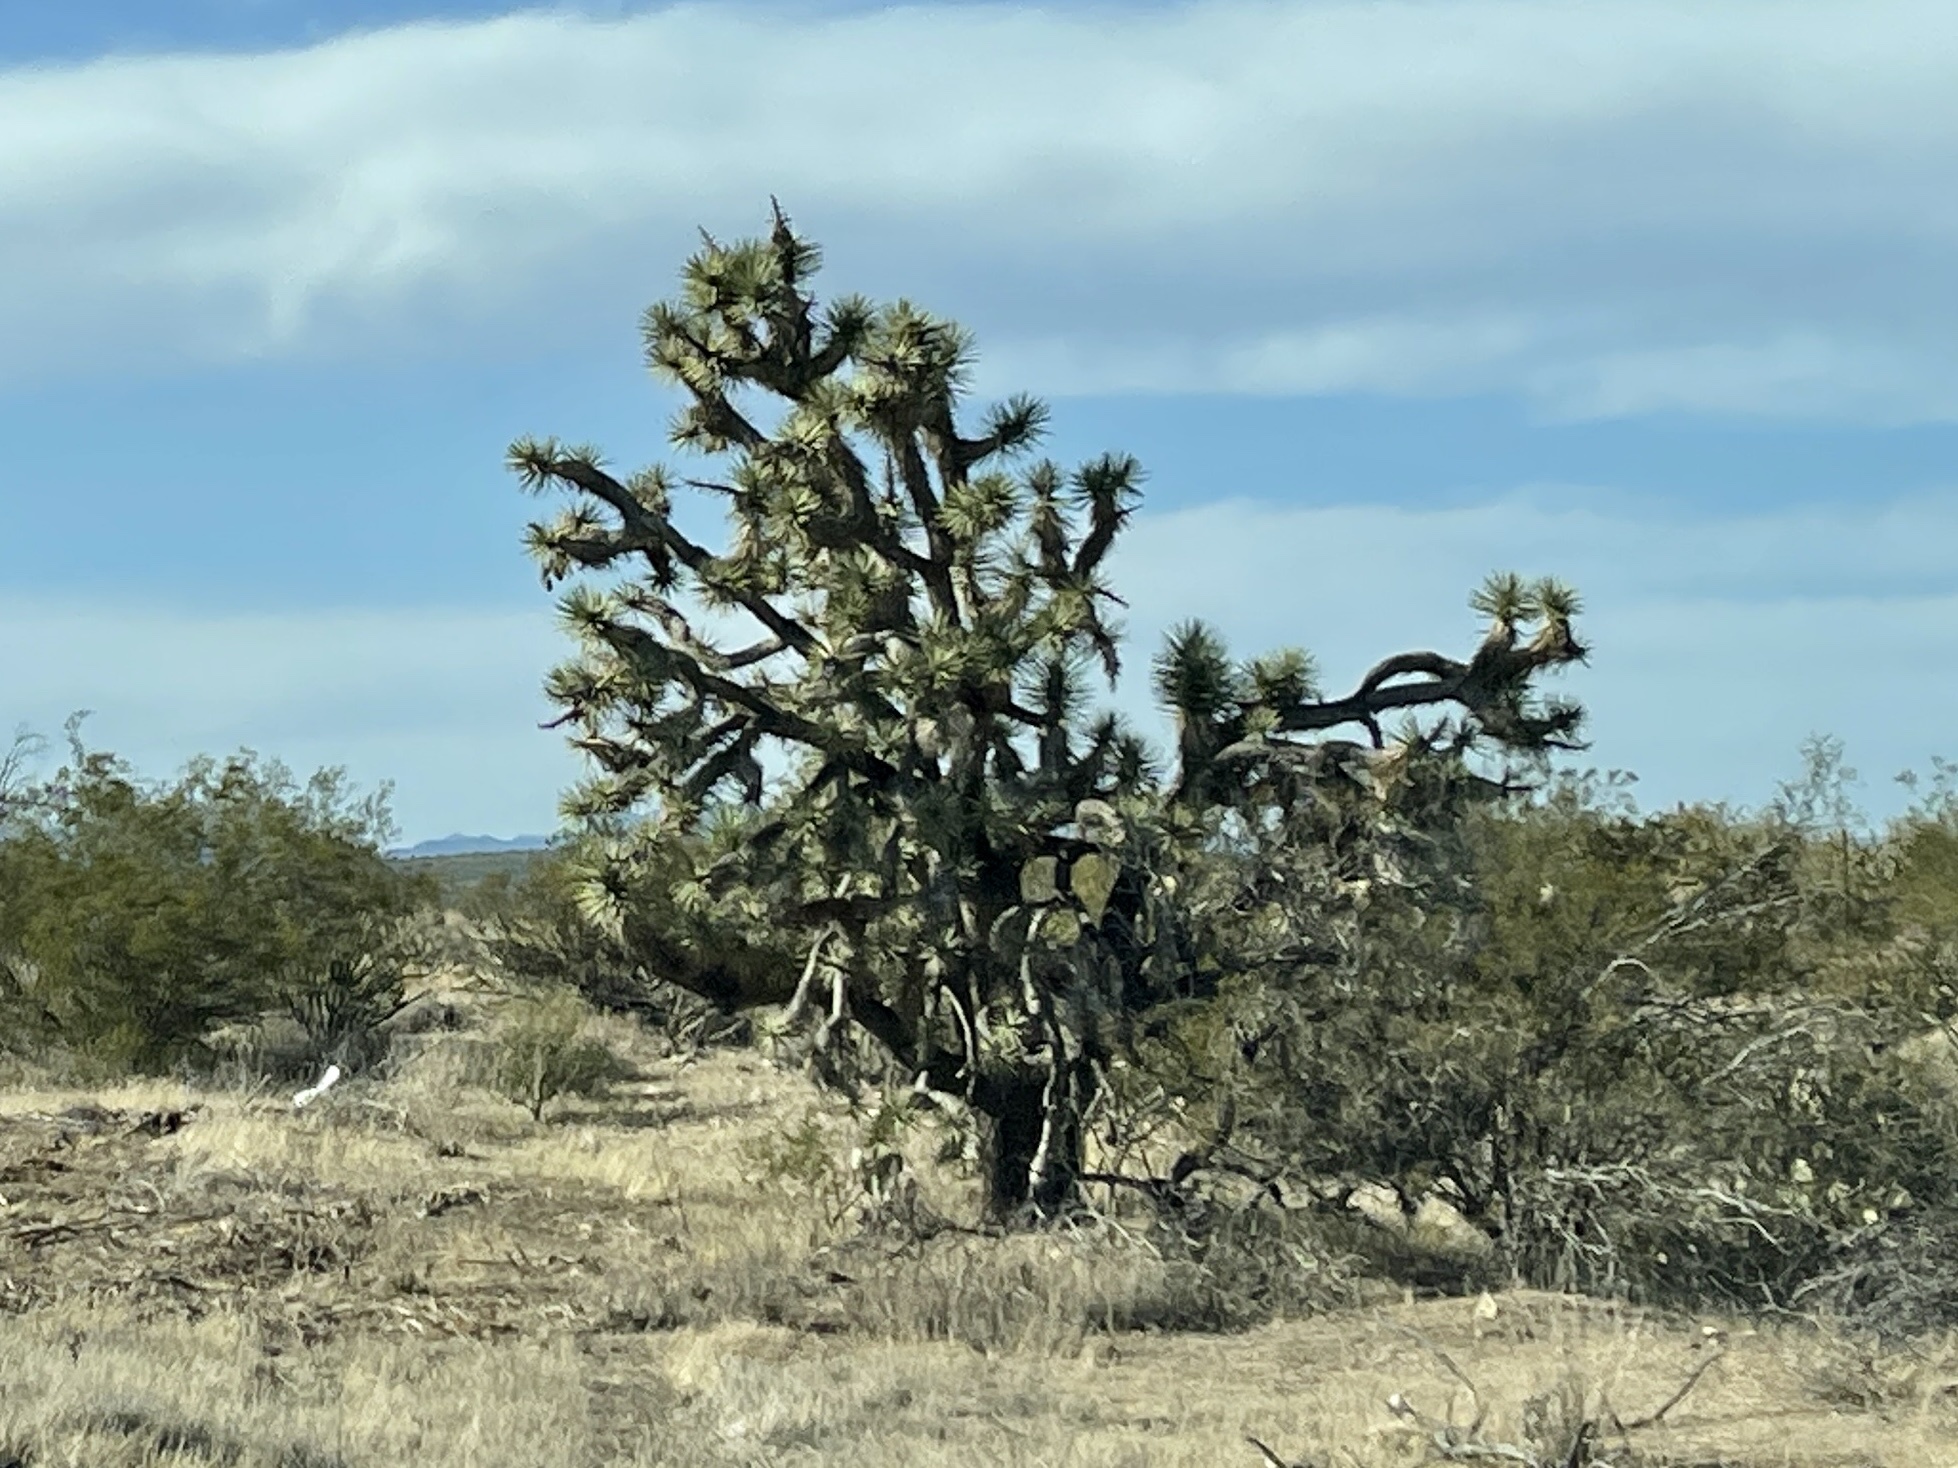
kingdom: Plantae
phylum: Tracheophyta
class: Liliopsida
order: Asparagales
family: Asparagaceae
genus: Yucca
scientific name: Yucca brevifolia
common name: Joshua tree
